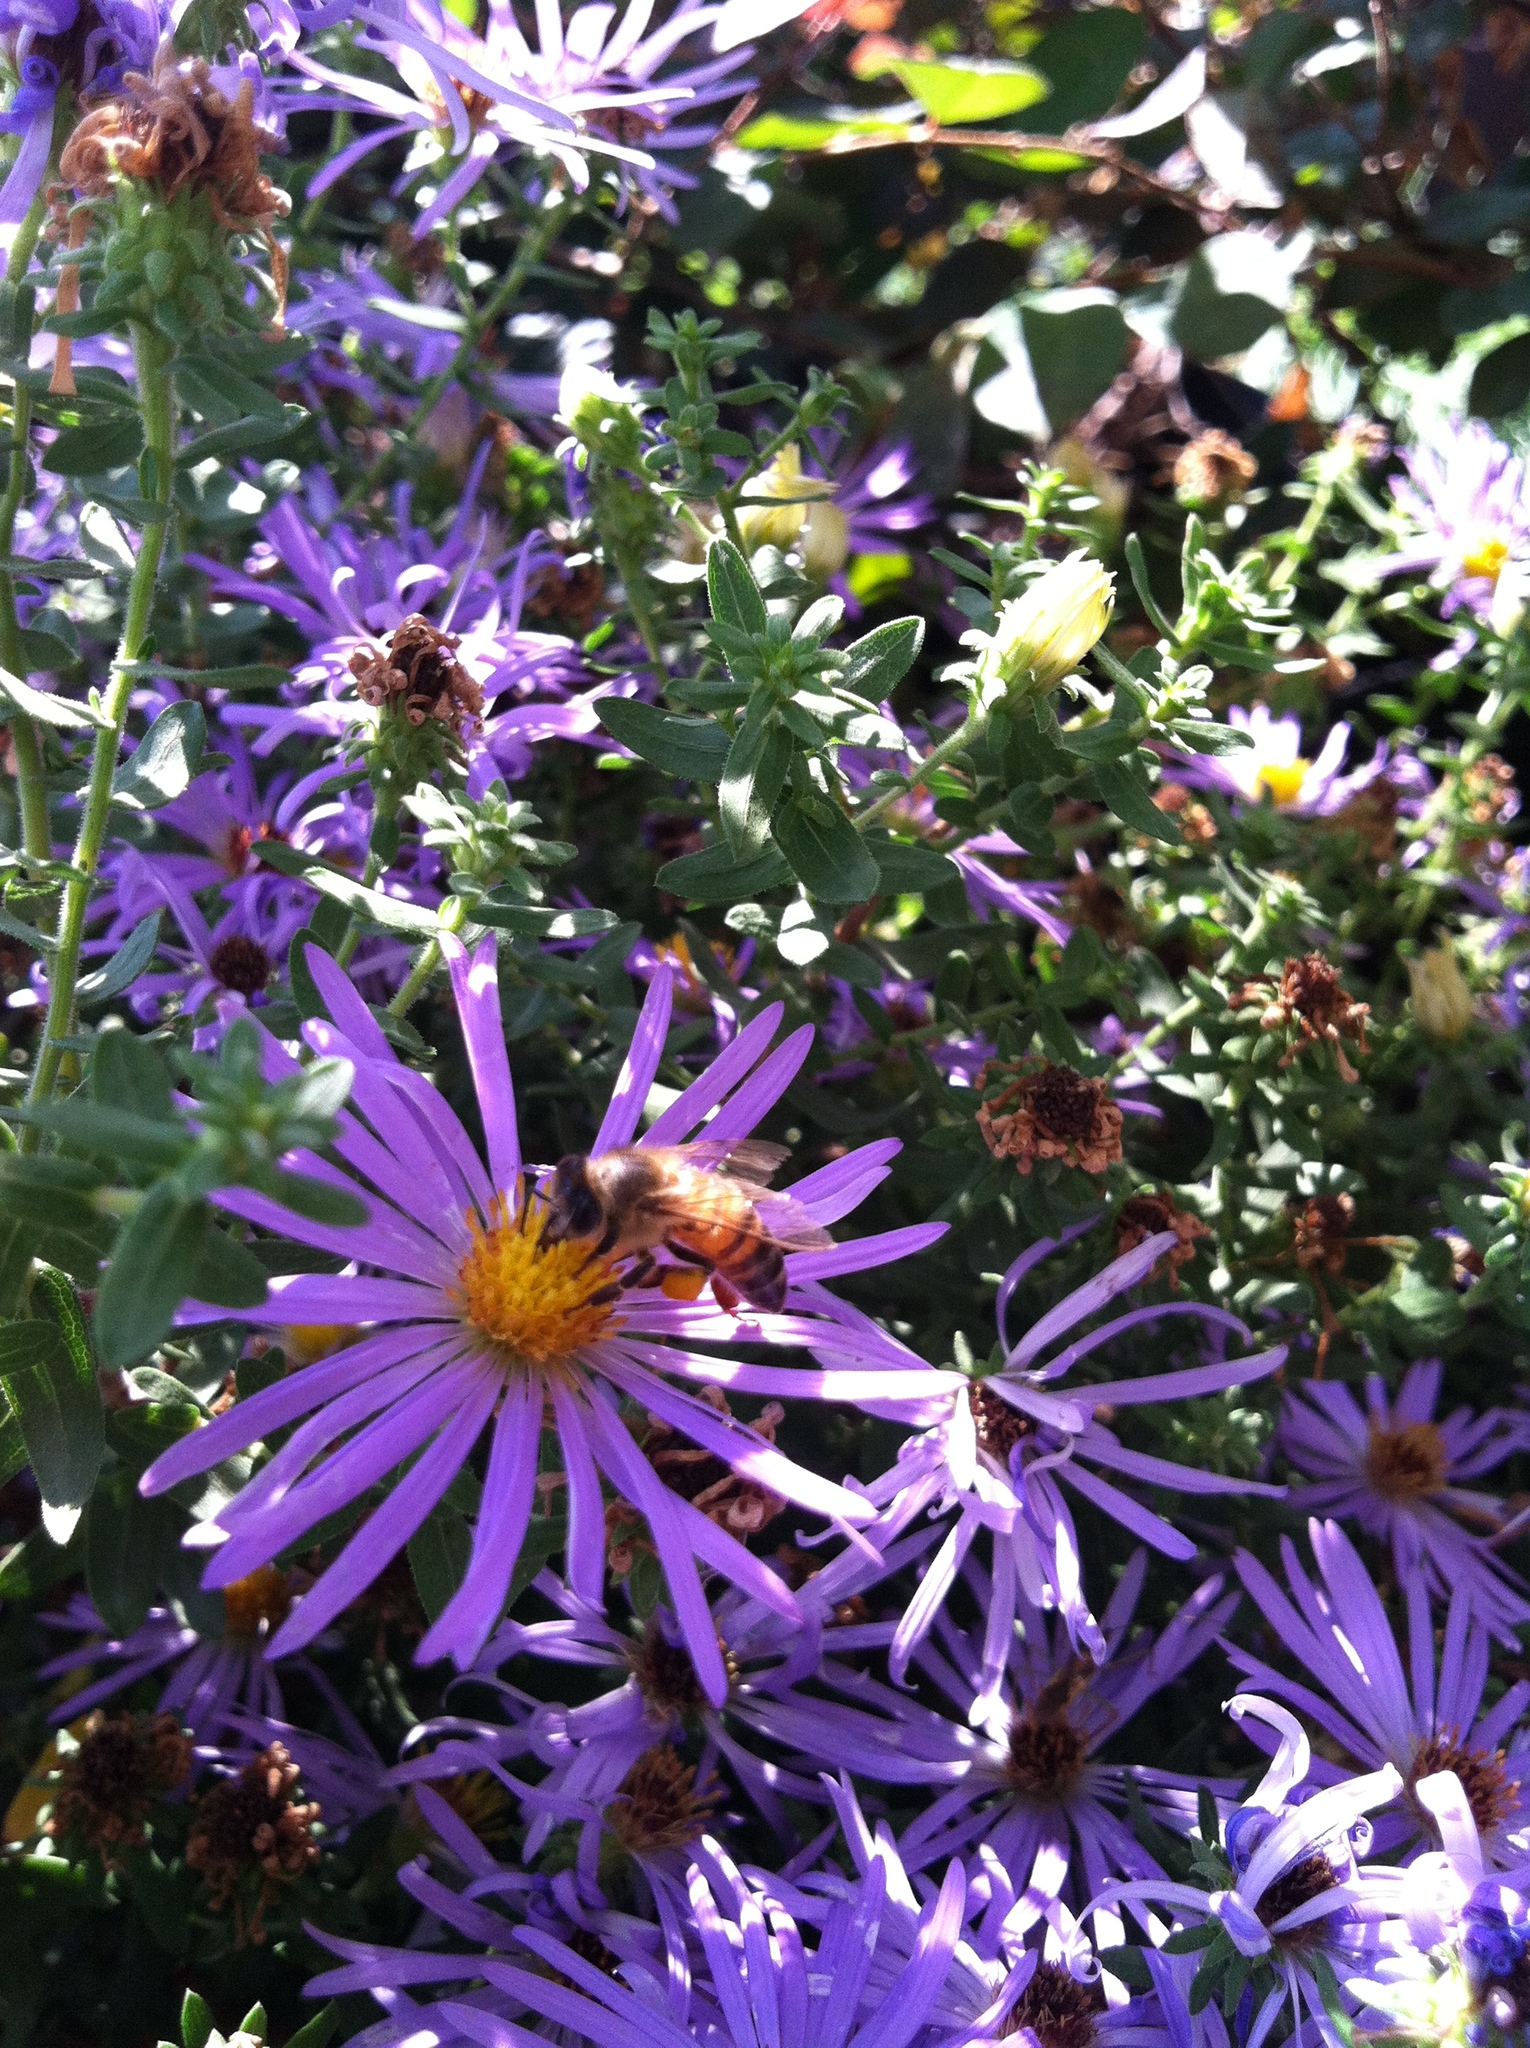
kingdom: Animalia
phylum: Arthropoda
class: Insecta
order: Hymenoptera
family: Apidae
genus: Apis
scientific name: Apis mellifera
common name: Honey bee
